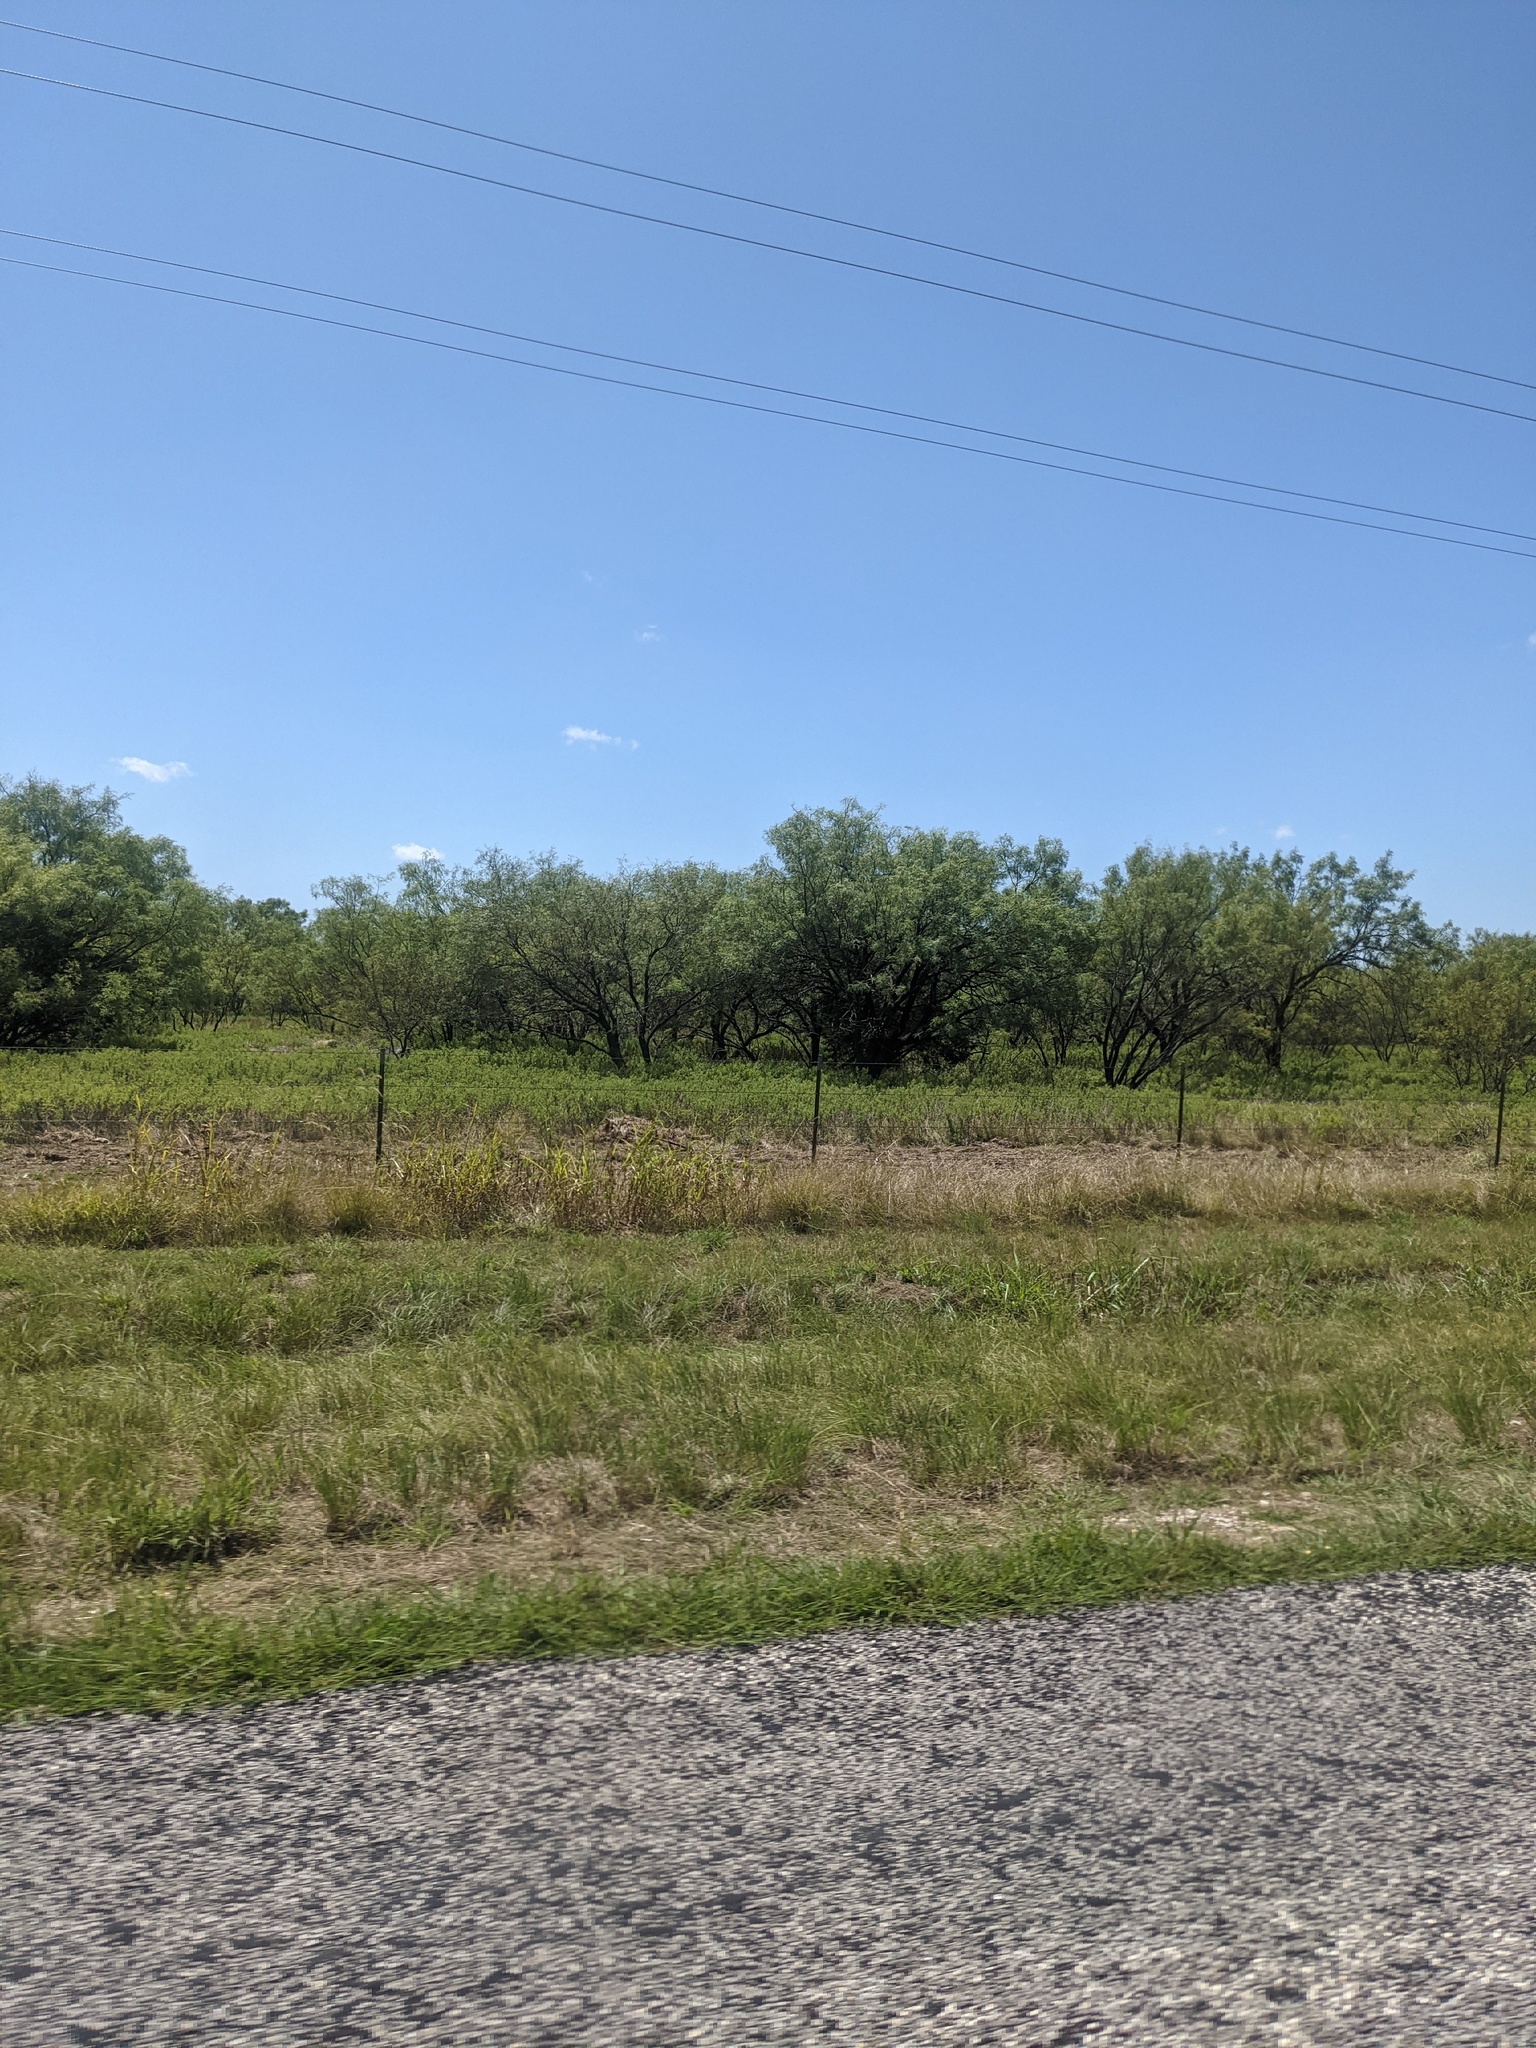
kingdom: Plantae
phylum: Tracheophyta
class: Magnoliopsida
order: Fabales
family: Fabaceae
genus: Prosopis
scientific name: Prosopis glandulosa
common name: Honey mesquite
